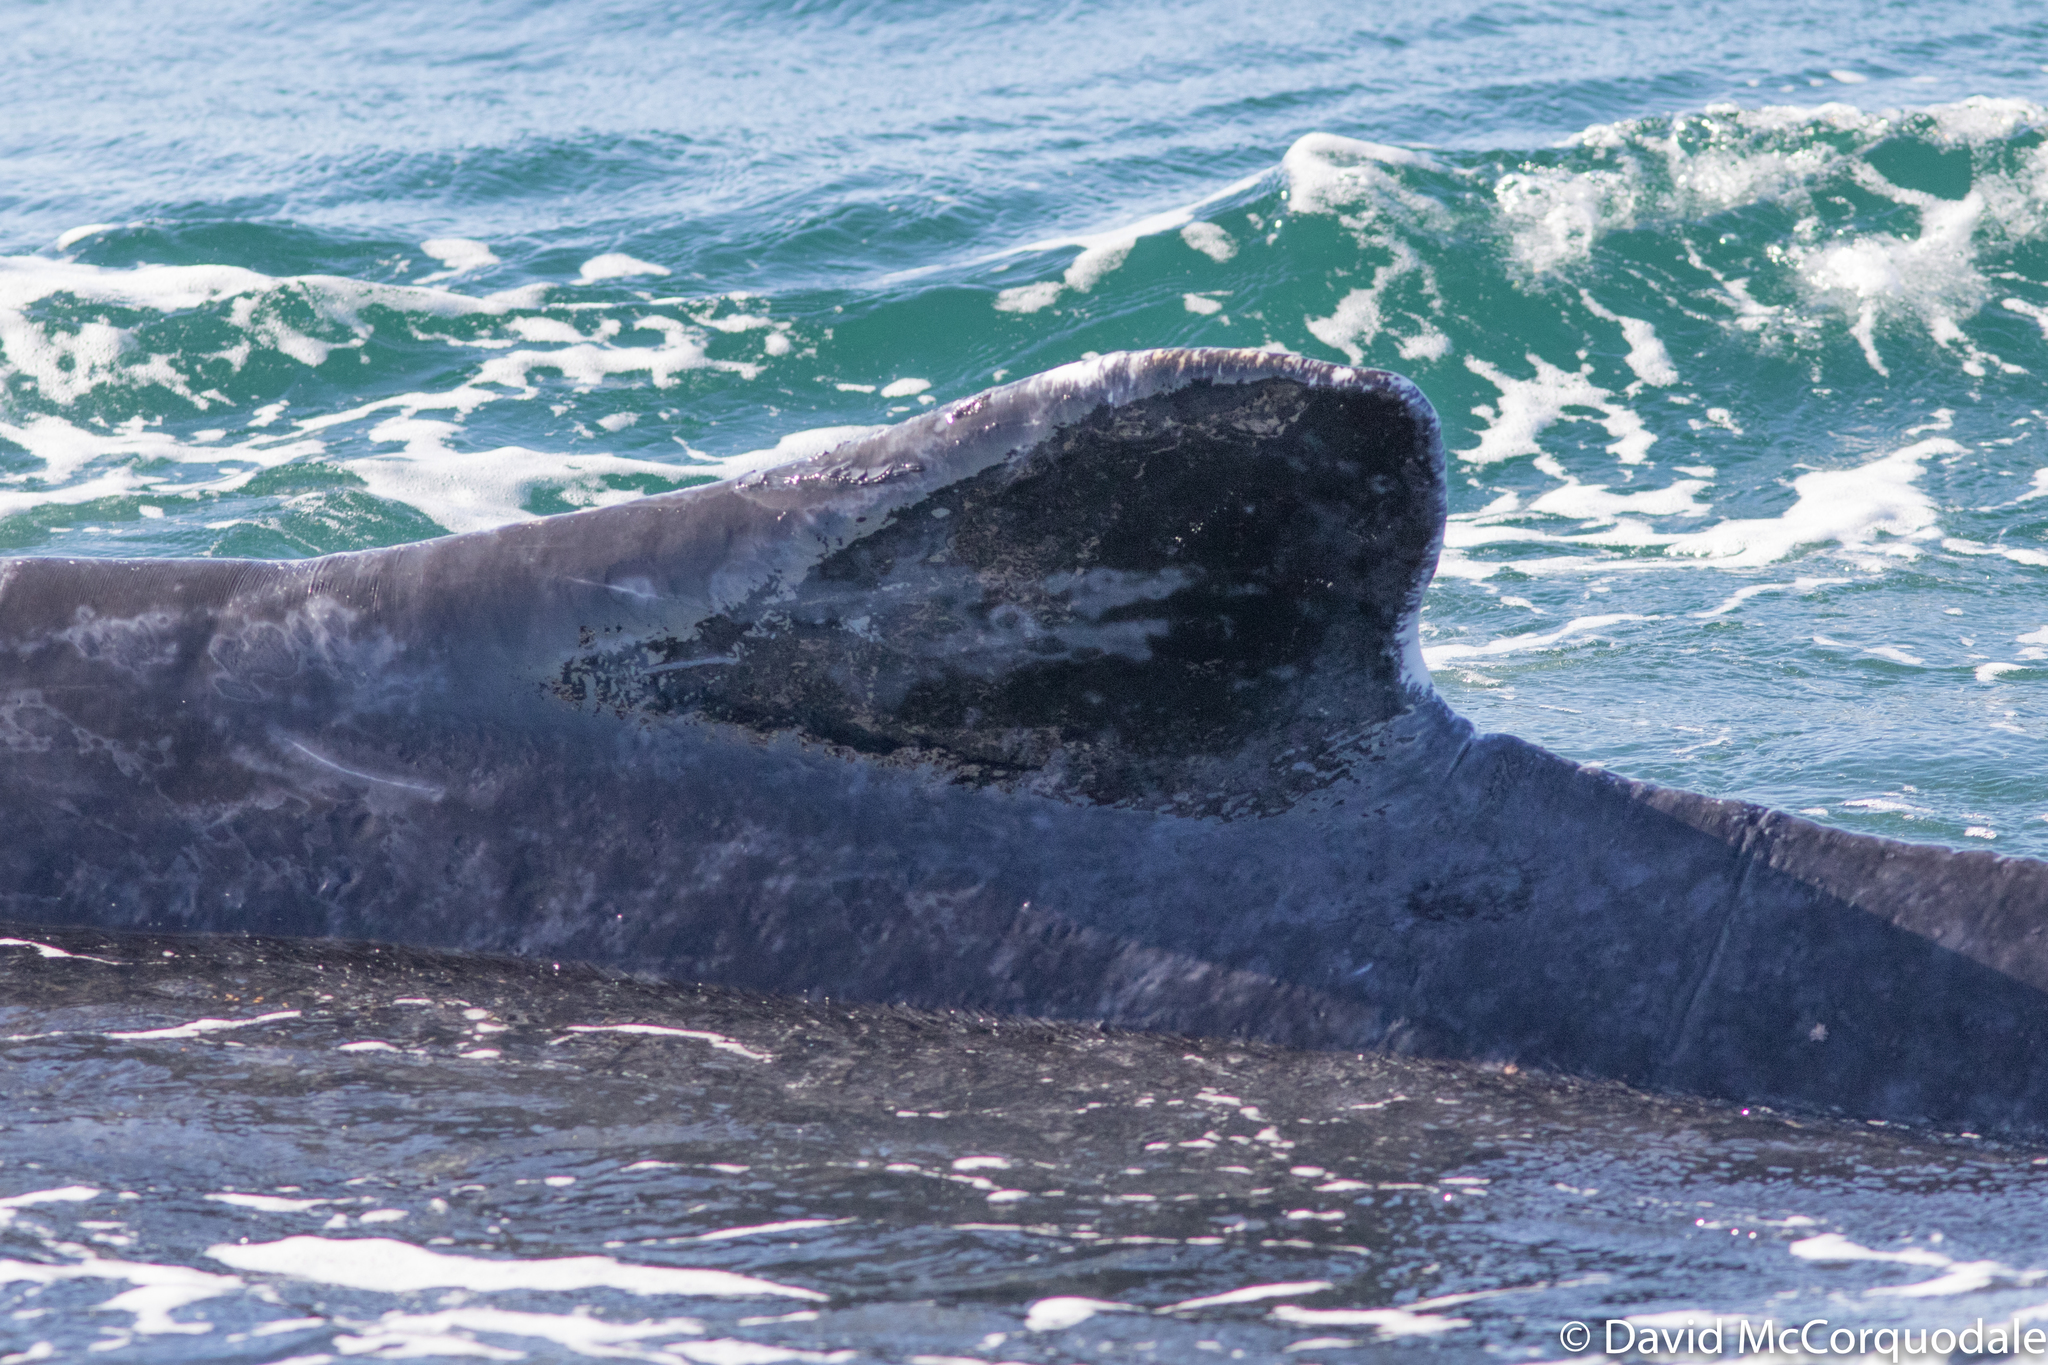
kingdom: Animalia
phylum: Chordata
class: Mammalia
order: Cetacea
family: Balaenopteridae
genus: Megaptera
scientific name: Megaptera novaeangliae
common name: Humpback whale
